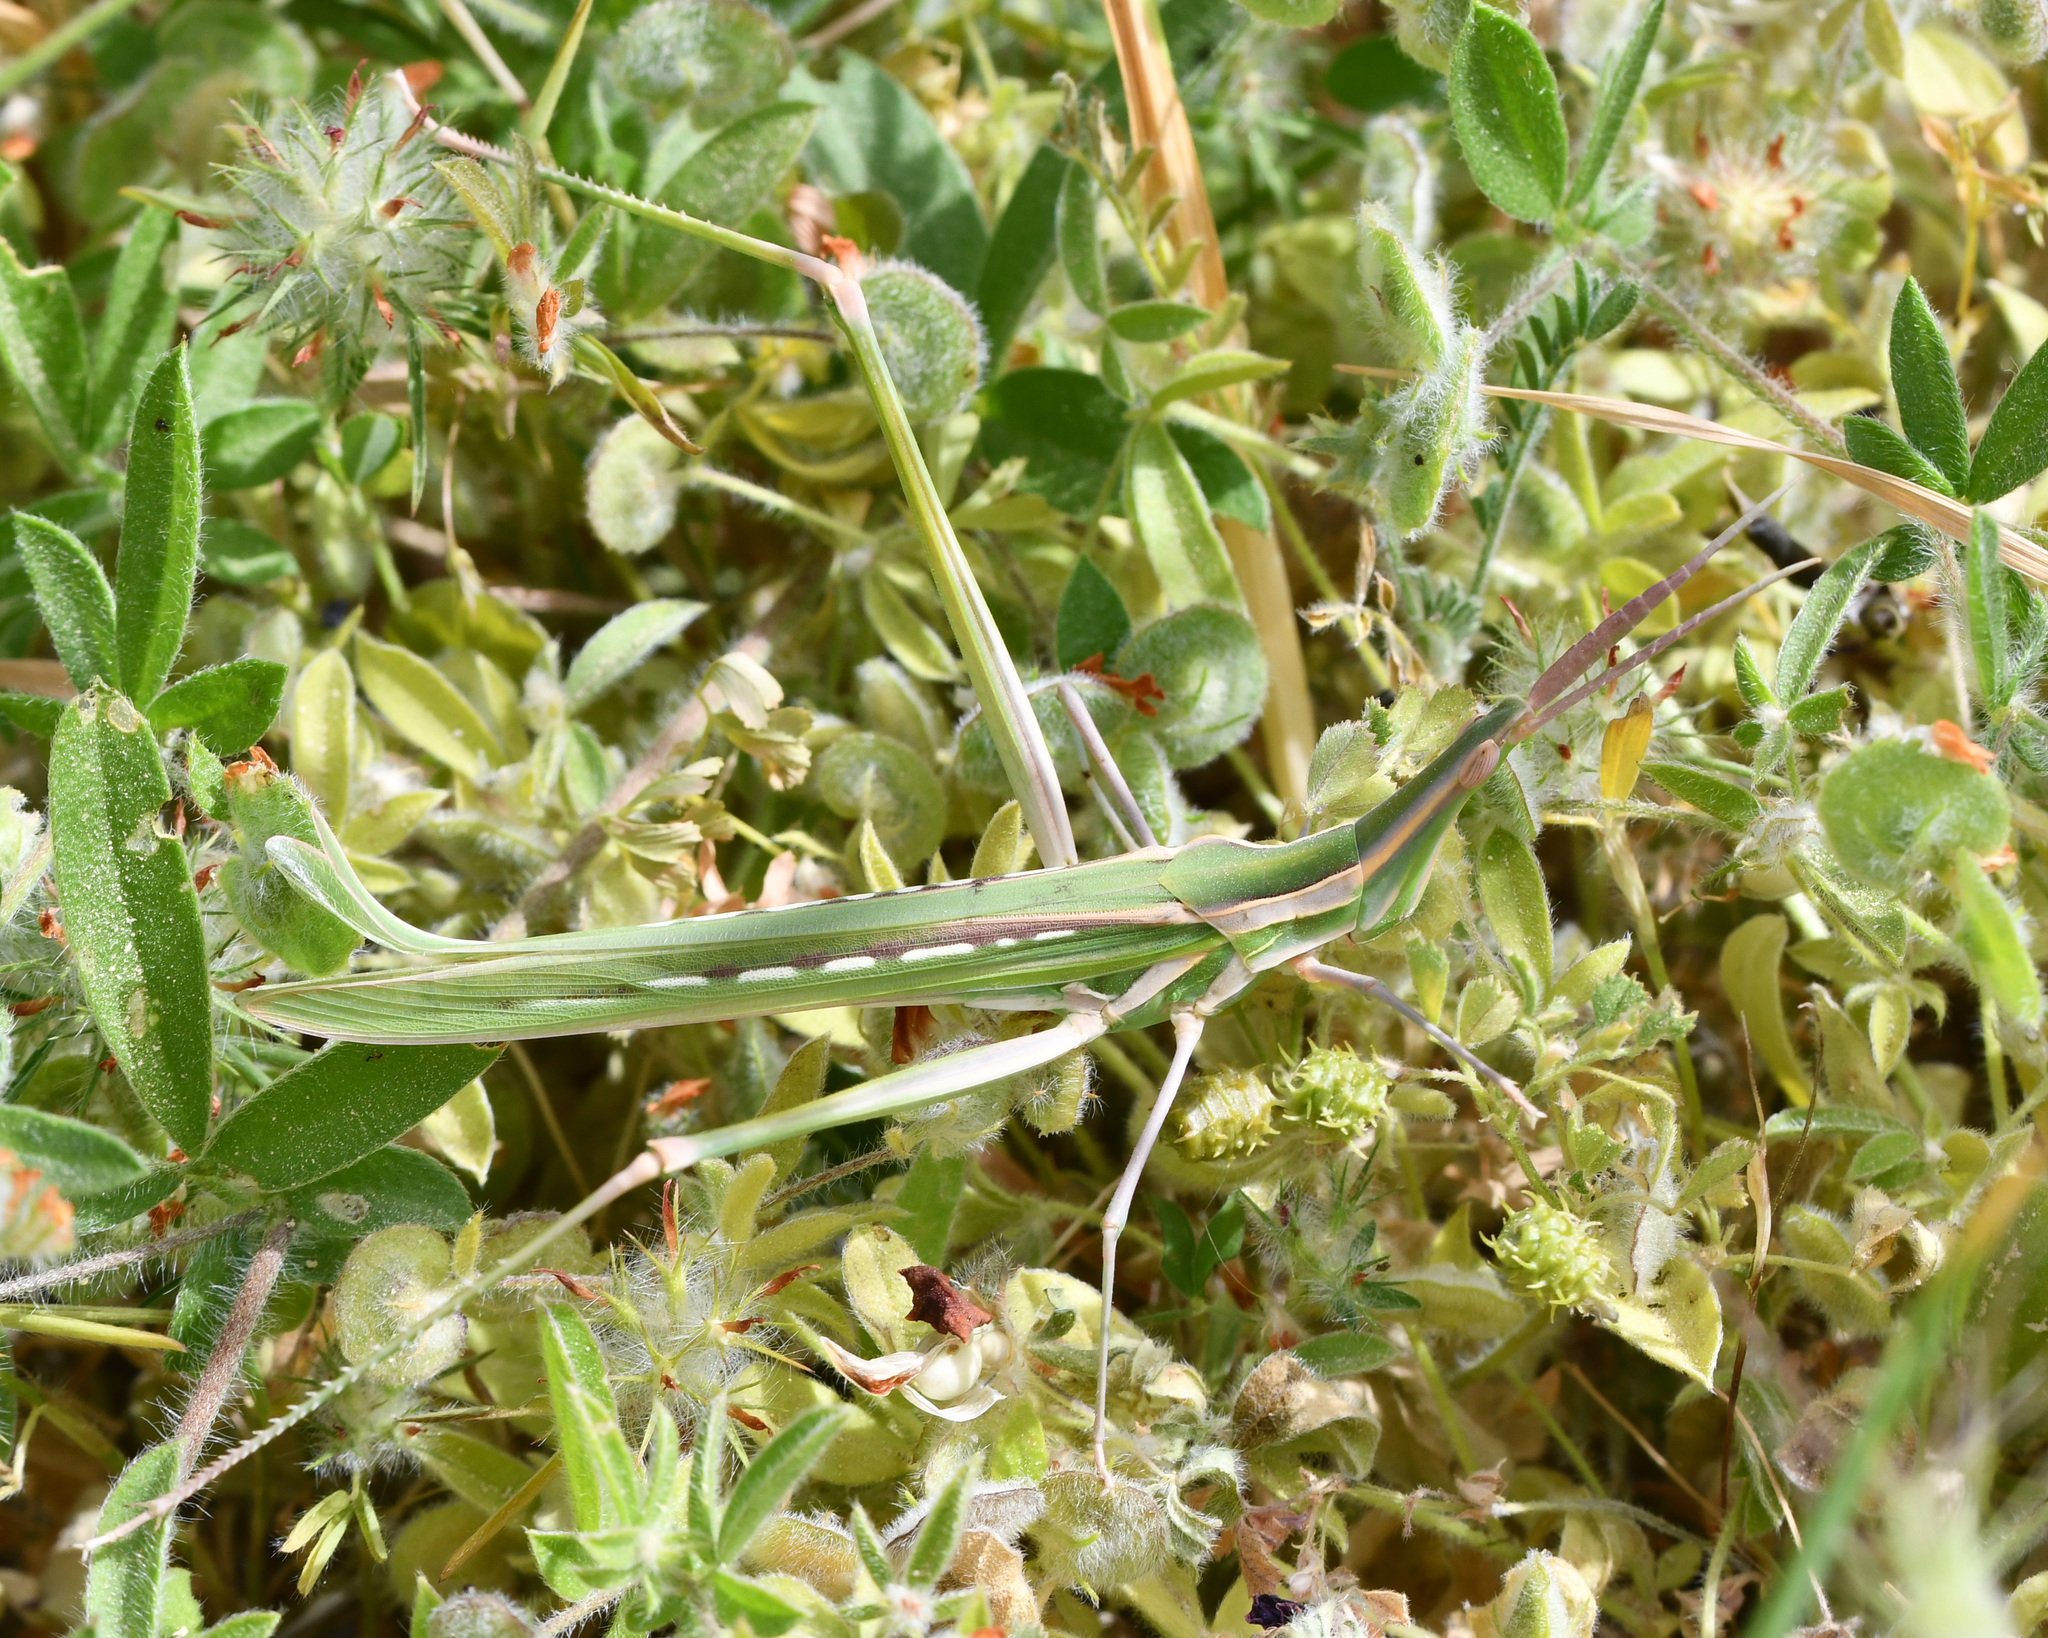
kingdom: Animalia
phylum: Arthropoda
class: Insecta
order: Orthoptera
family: Acrididae
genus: Truxalis
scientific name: Truxalis eximia
